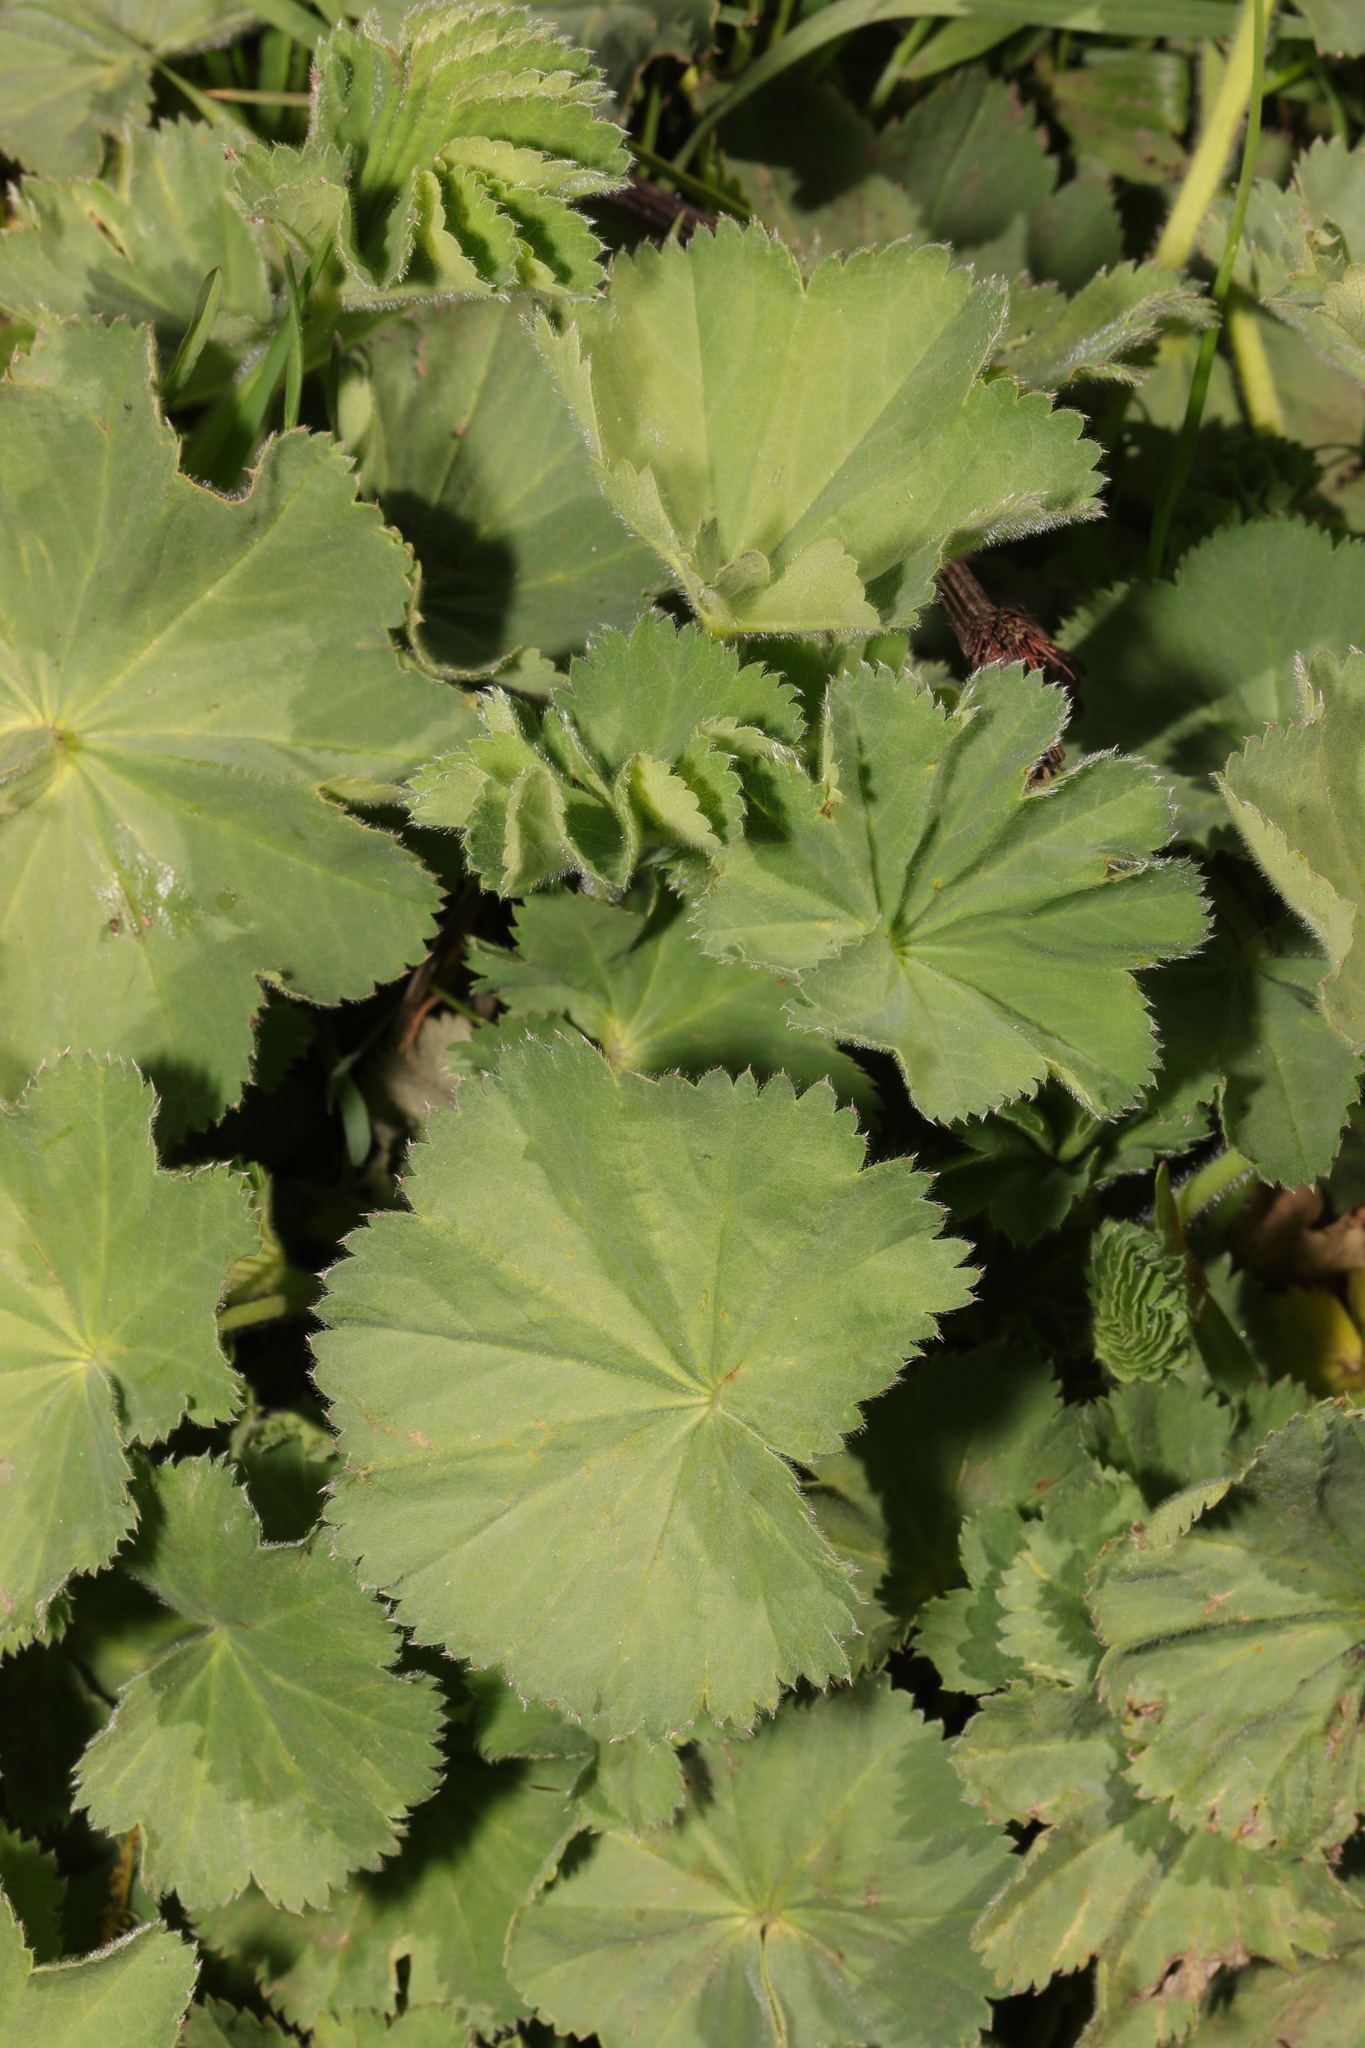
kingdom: Plantae
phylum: Tracheophyta
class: Magnoliopsida
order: Rosales
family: Rosaceae
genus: Alchemilla
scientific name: Alchemilla mollis
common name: Lady's-mantle
